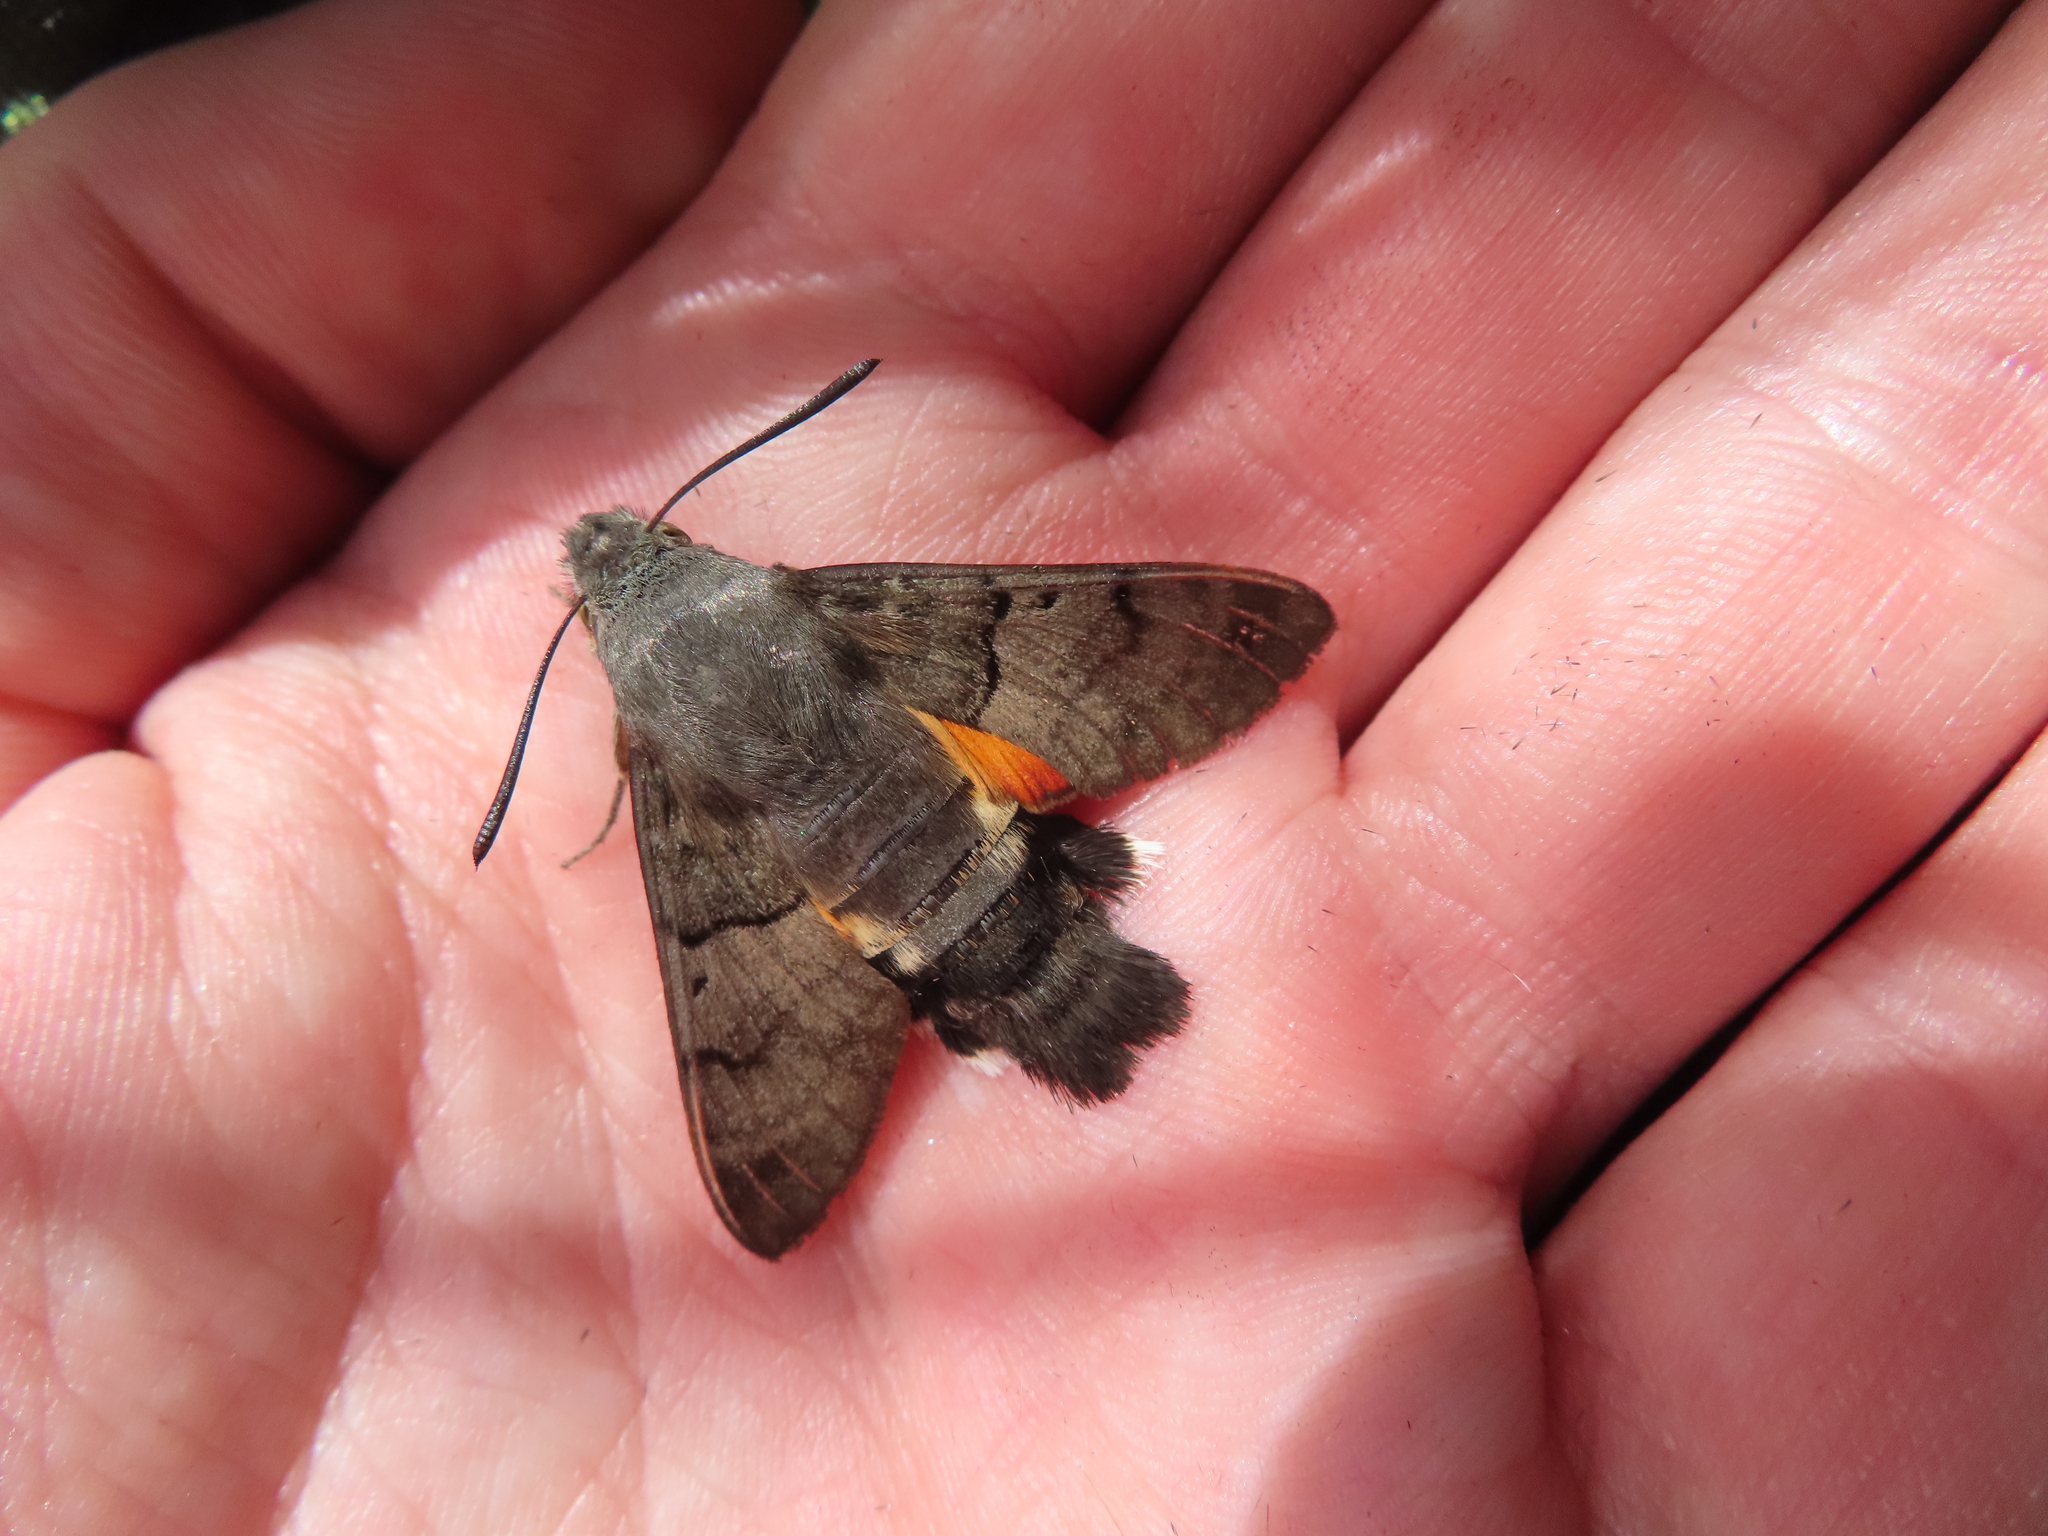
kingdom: Animalia
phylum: Arthropoda
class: Insecta
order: Lepidoptera
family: Sphingidae
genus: Macroglossum
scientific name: Macroglossum stellatarum
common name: Humming-bird hawk-moth
